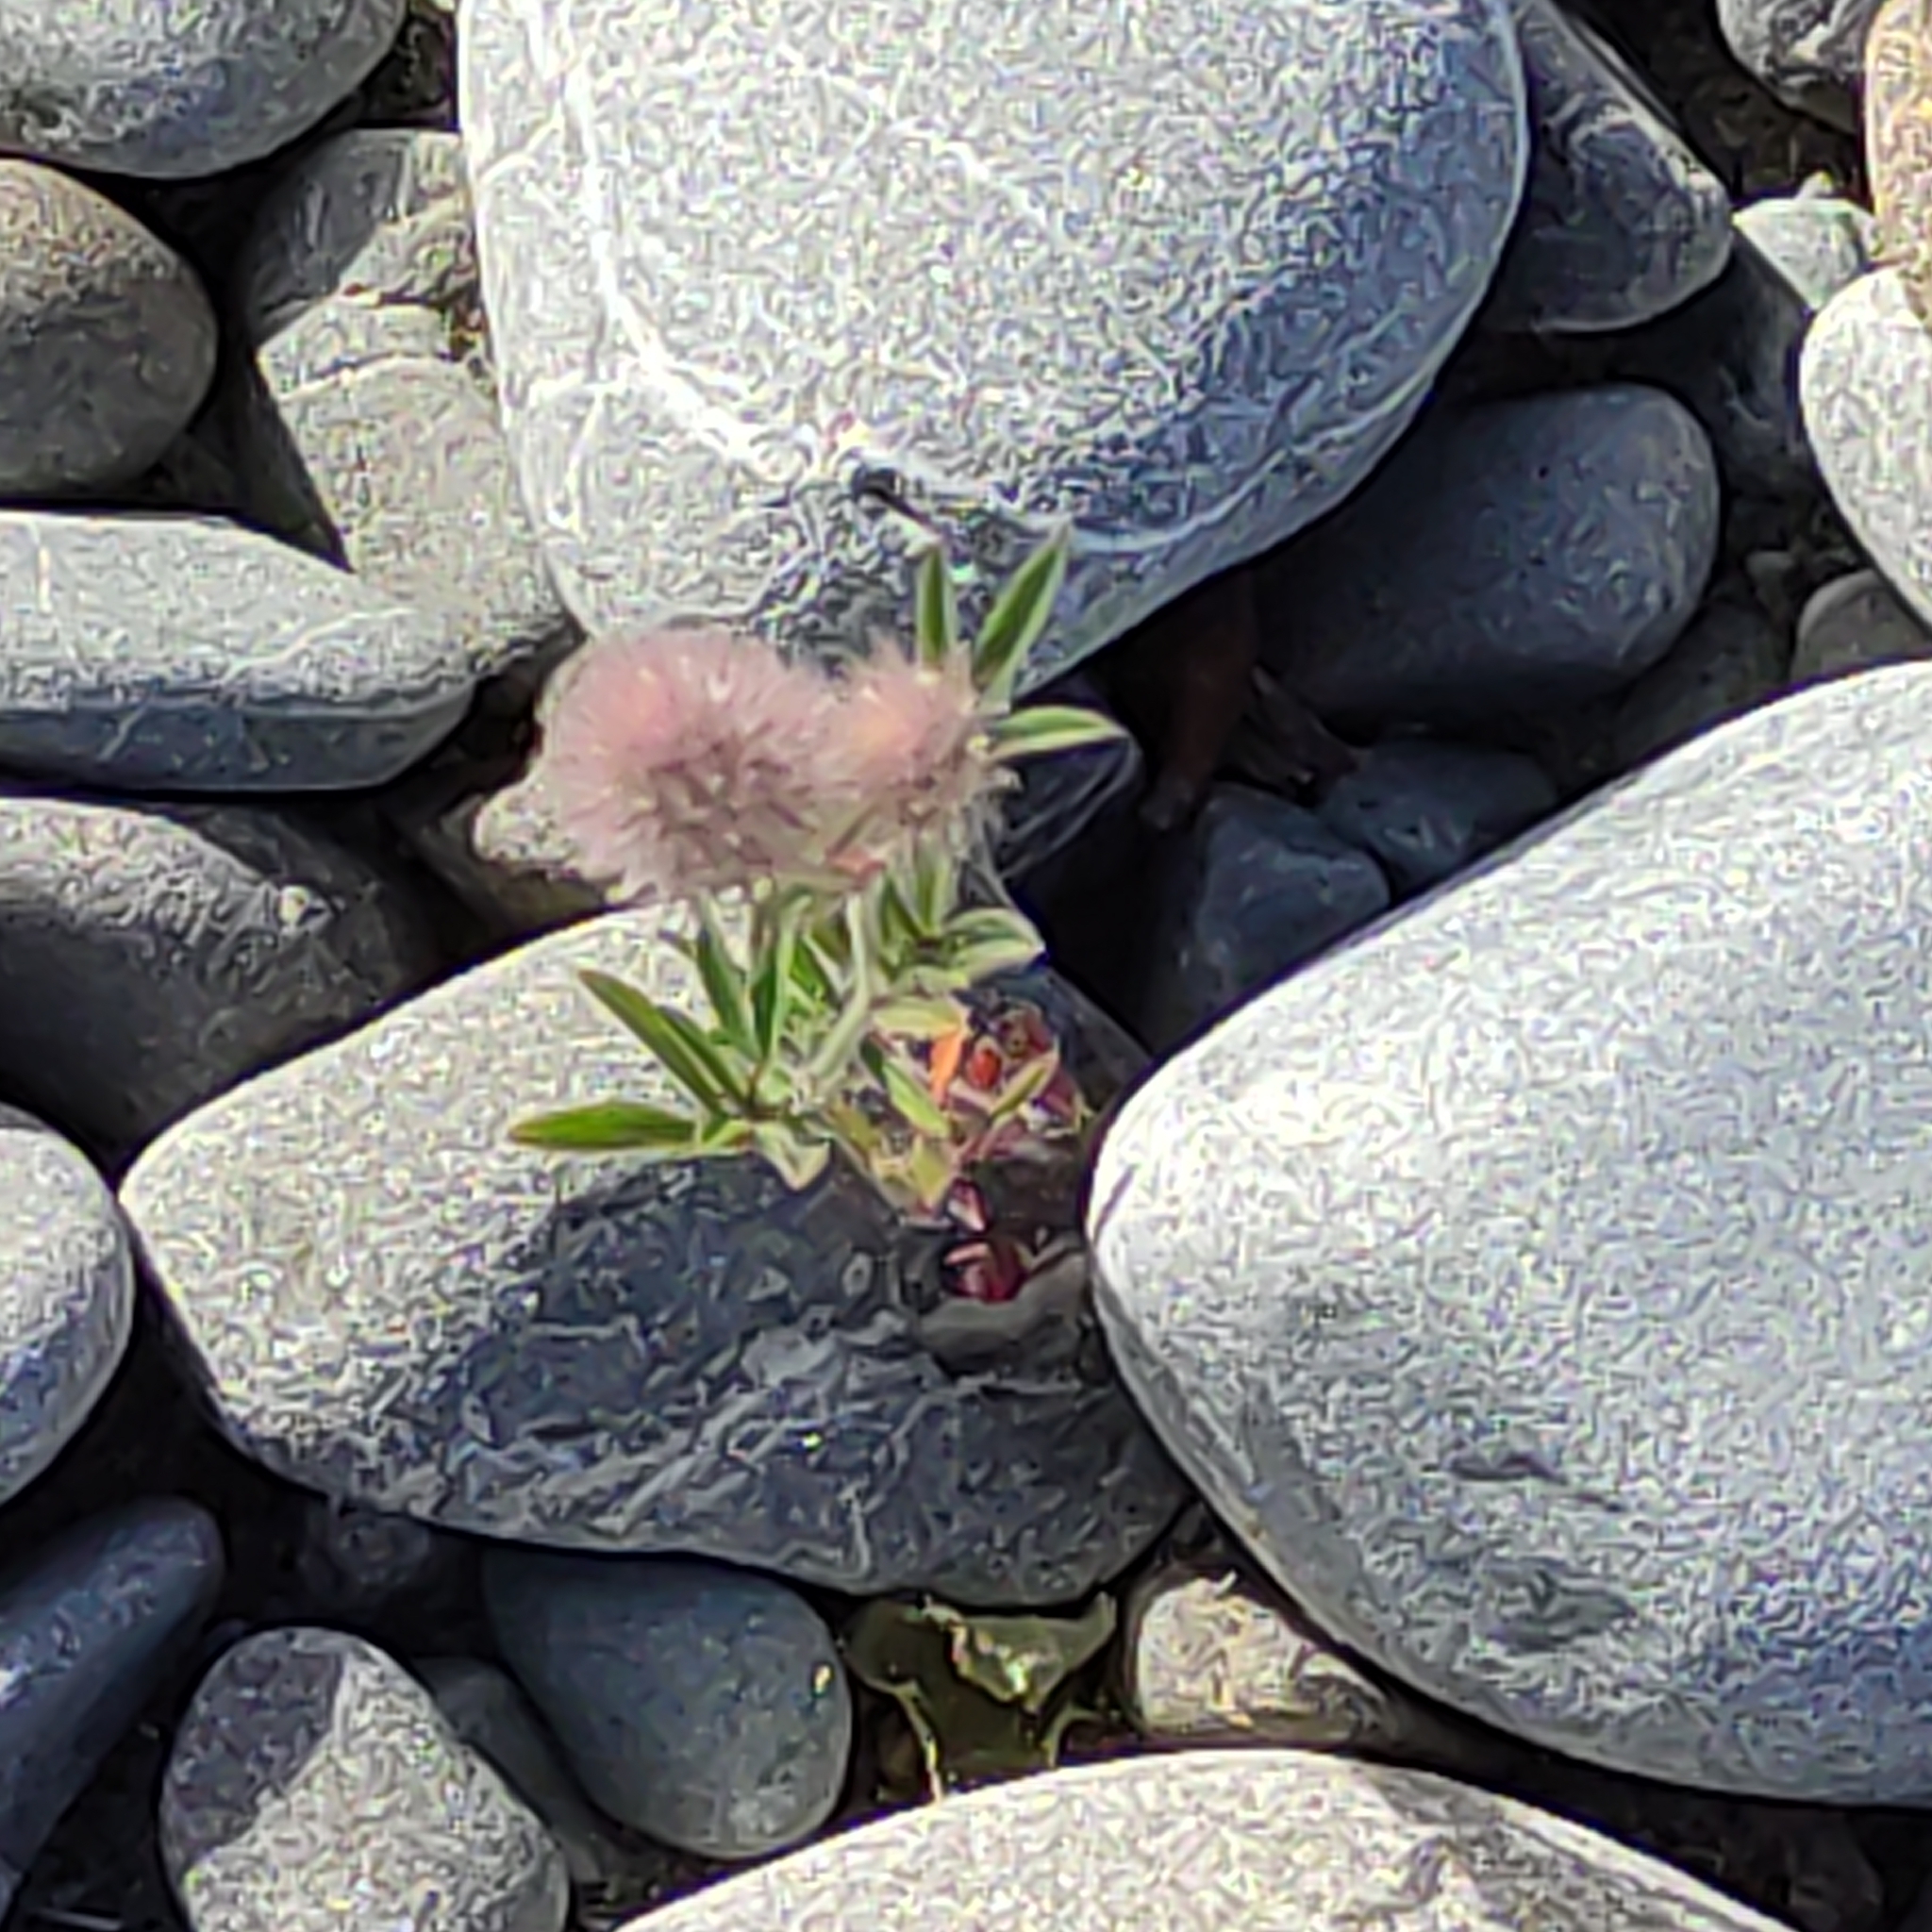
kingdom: Plantae
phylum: Tracheophyta
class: Magnoliopsida
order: Fabales
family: Fabaceae
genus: Trifolium
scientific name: Trifolium arvense
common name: Hare's-foot clover
